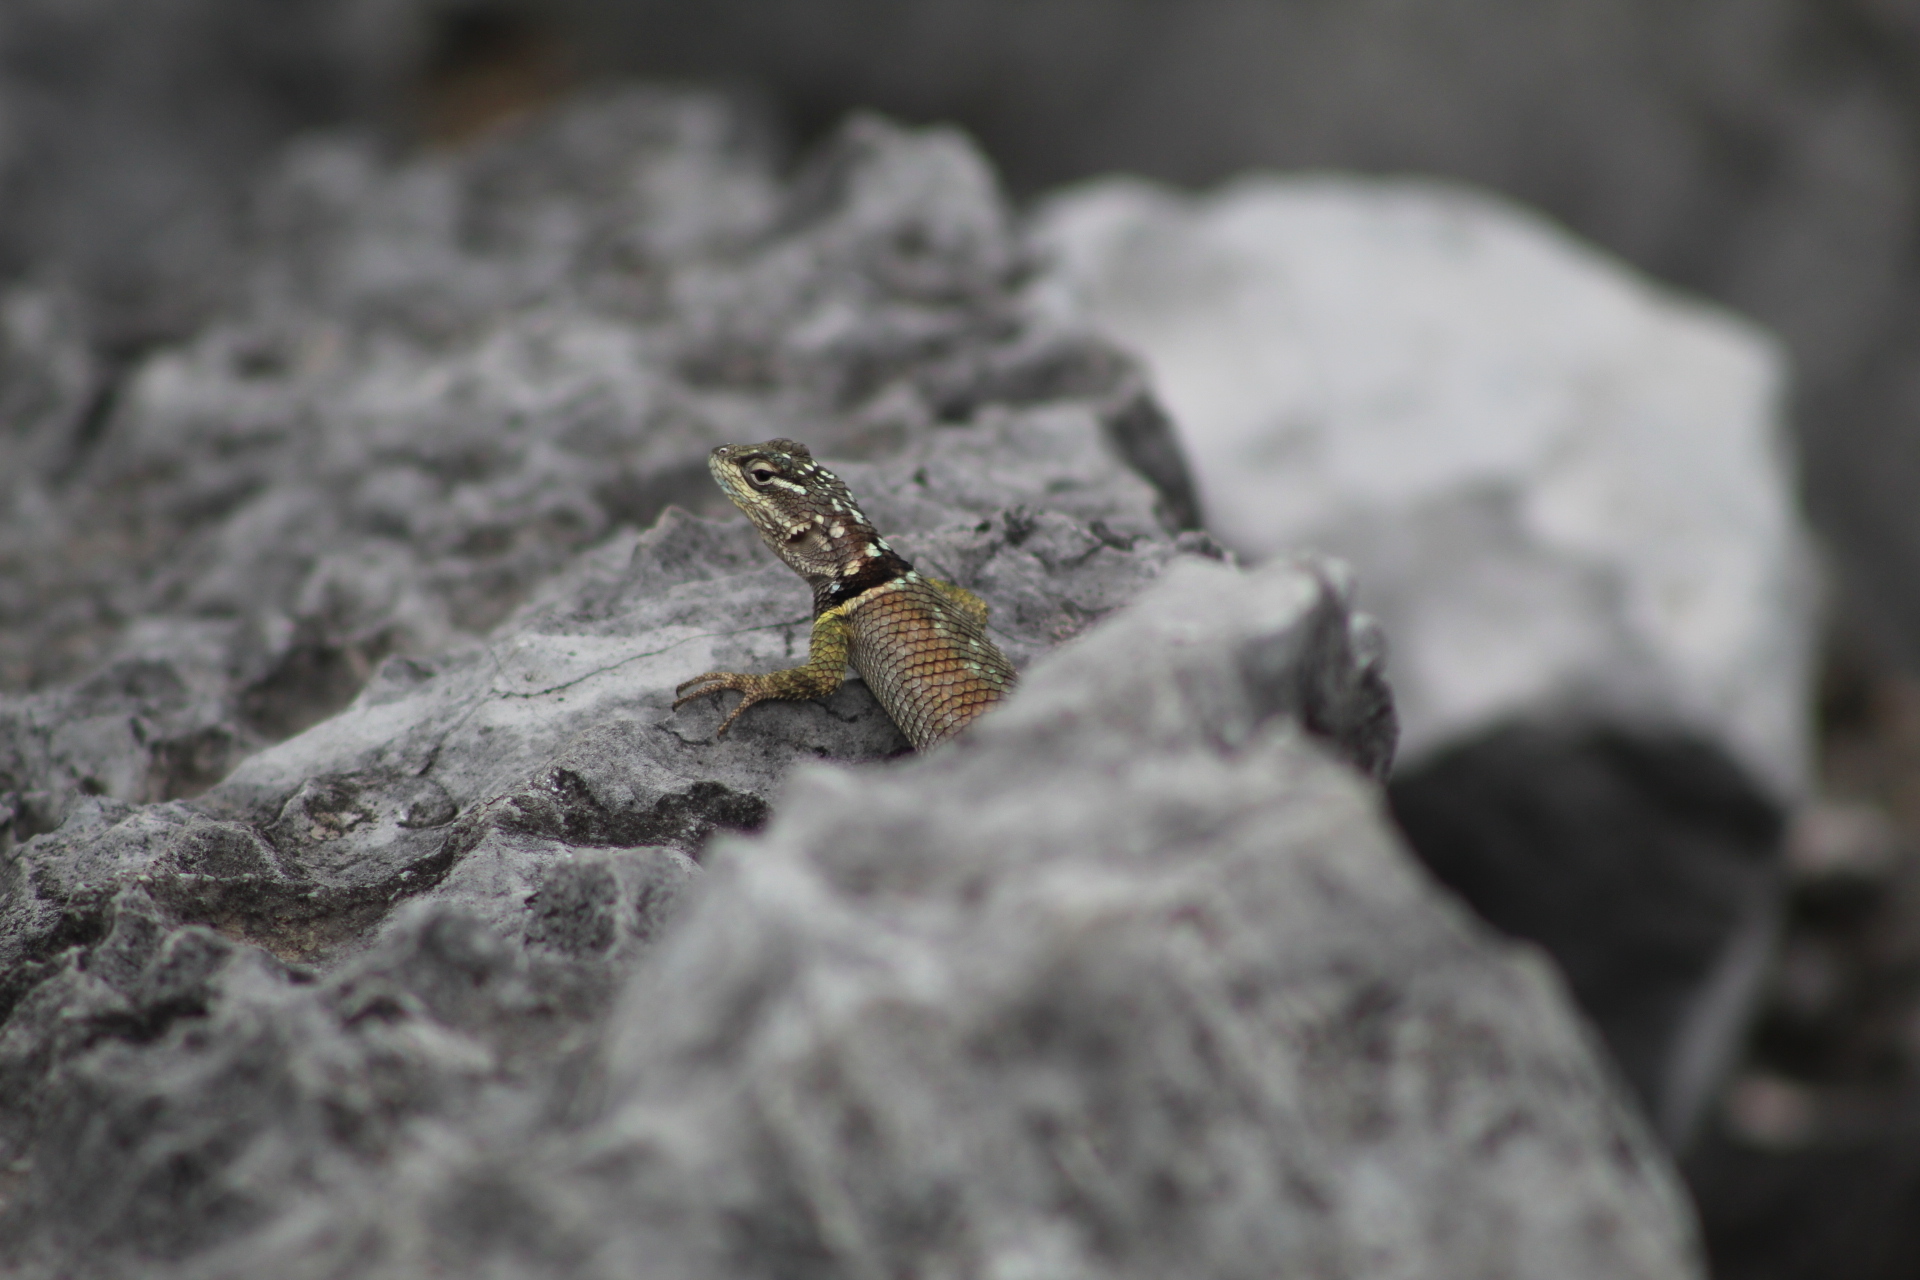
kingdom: Animalia
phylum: Chordata
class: Squamata
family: Phrynosomatidae
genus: Sceloporus
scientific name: Sceloporus cyanogenys
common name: Blue spiny lizard
